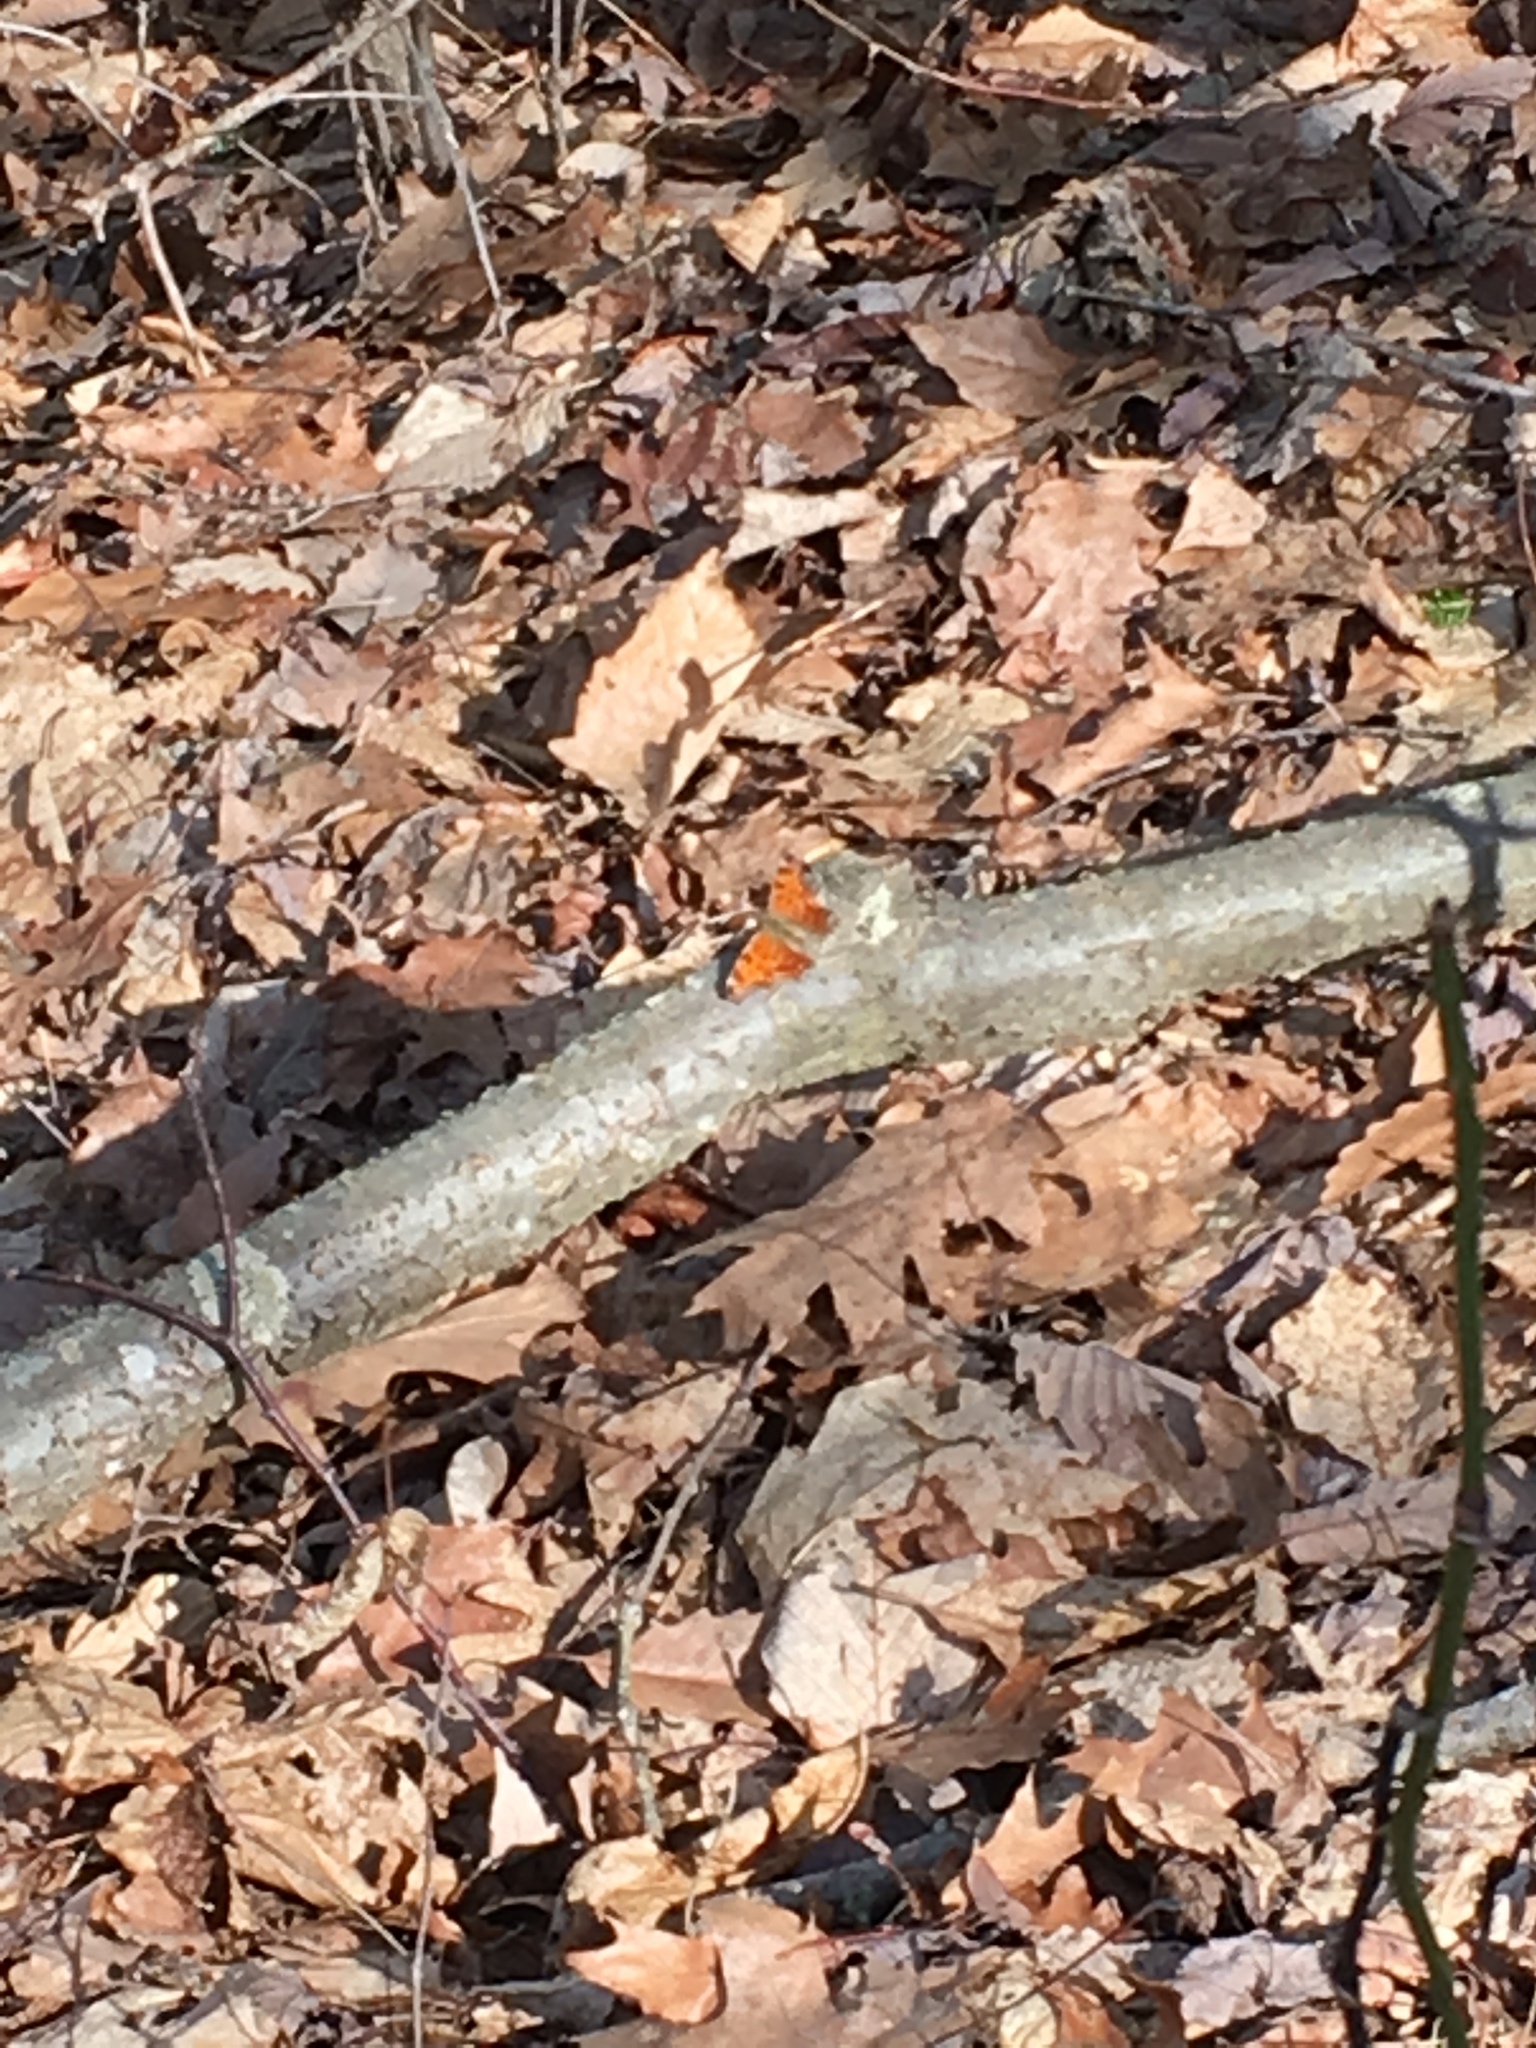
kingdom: Animalia
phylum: Arthropoda
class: Insecta
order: Lepidoptera
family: Nymphalidae
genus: Polygonia
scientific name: Polygonia comma
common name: Eastern comma
